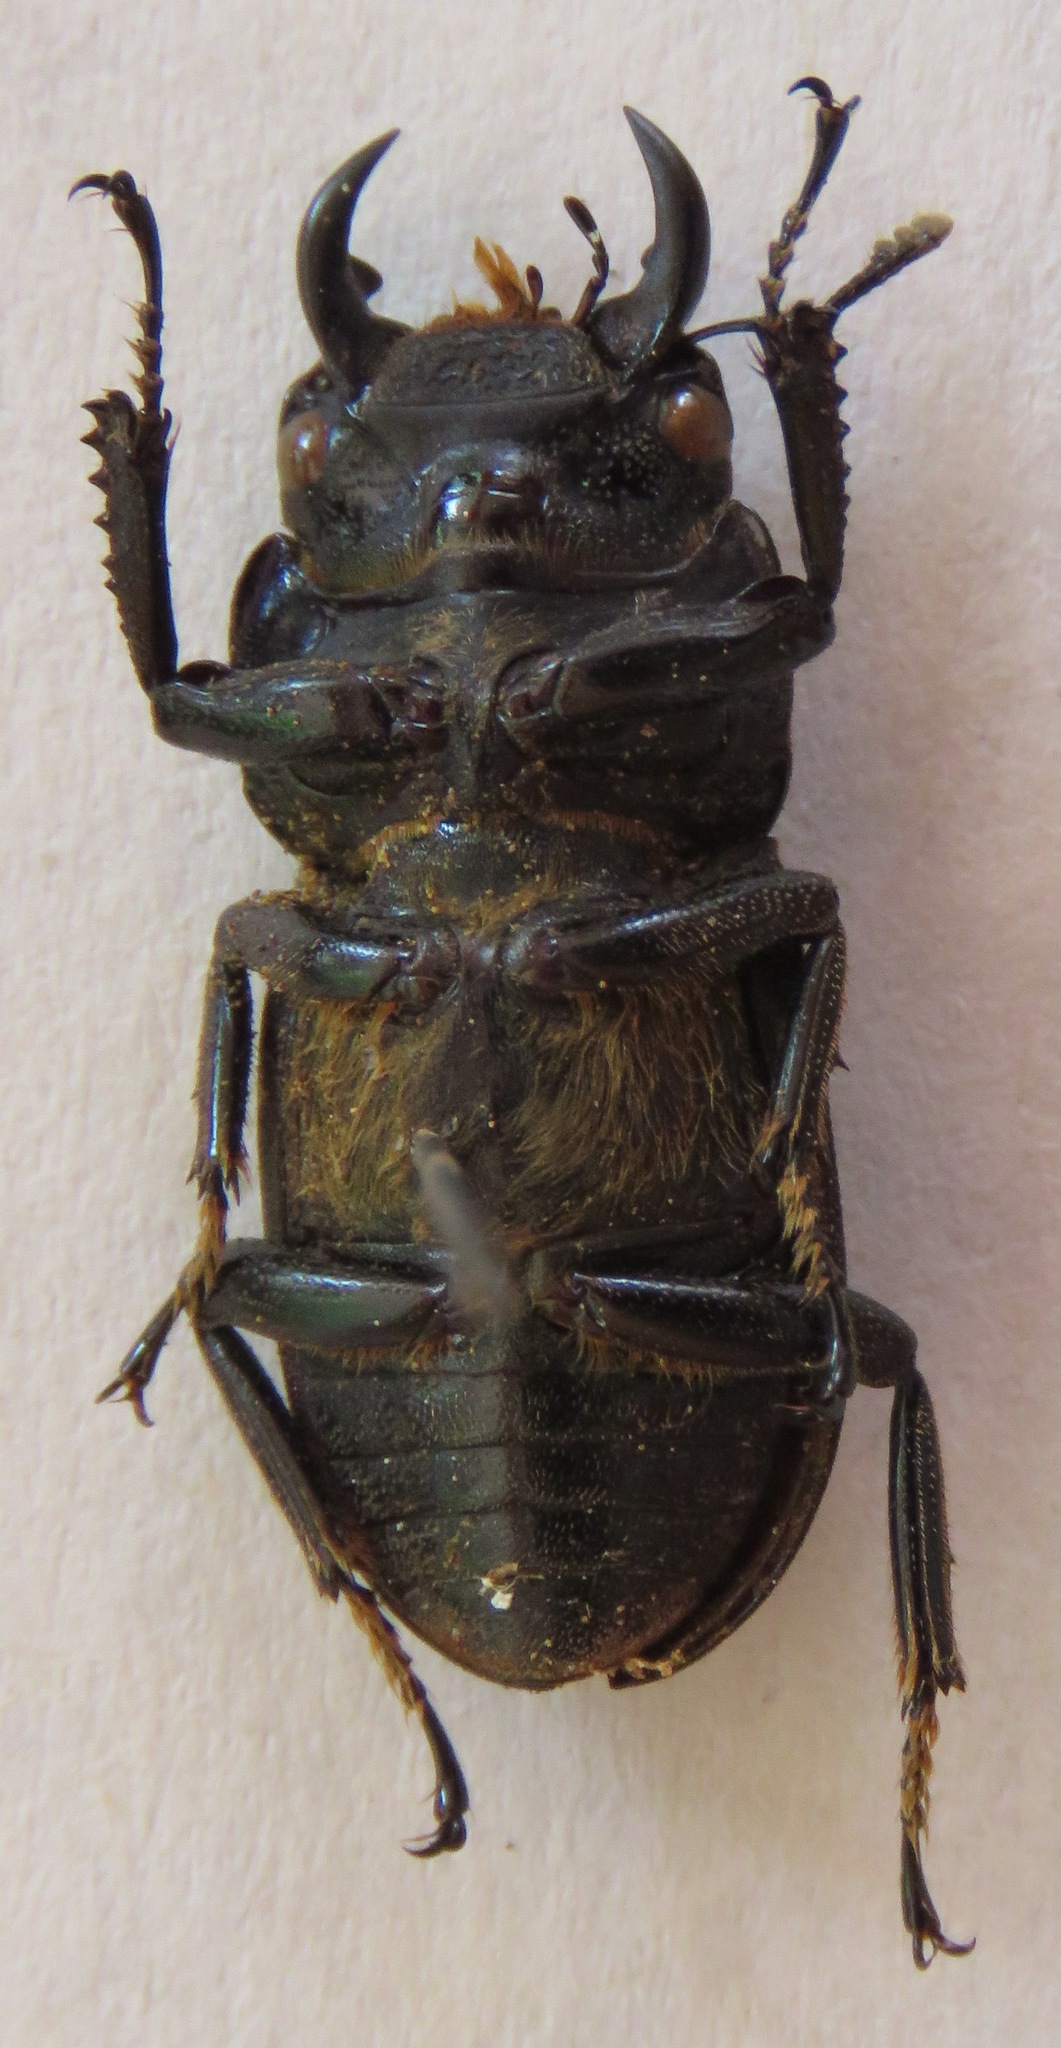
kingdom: Animalia
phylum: Arthropoda
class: Insecta
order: Coleoptera
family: Lucanidae
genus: Dorcus
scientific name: Dorcus cervulus
